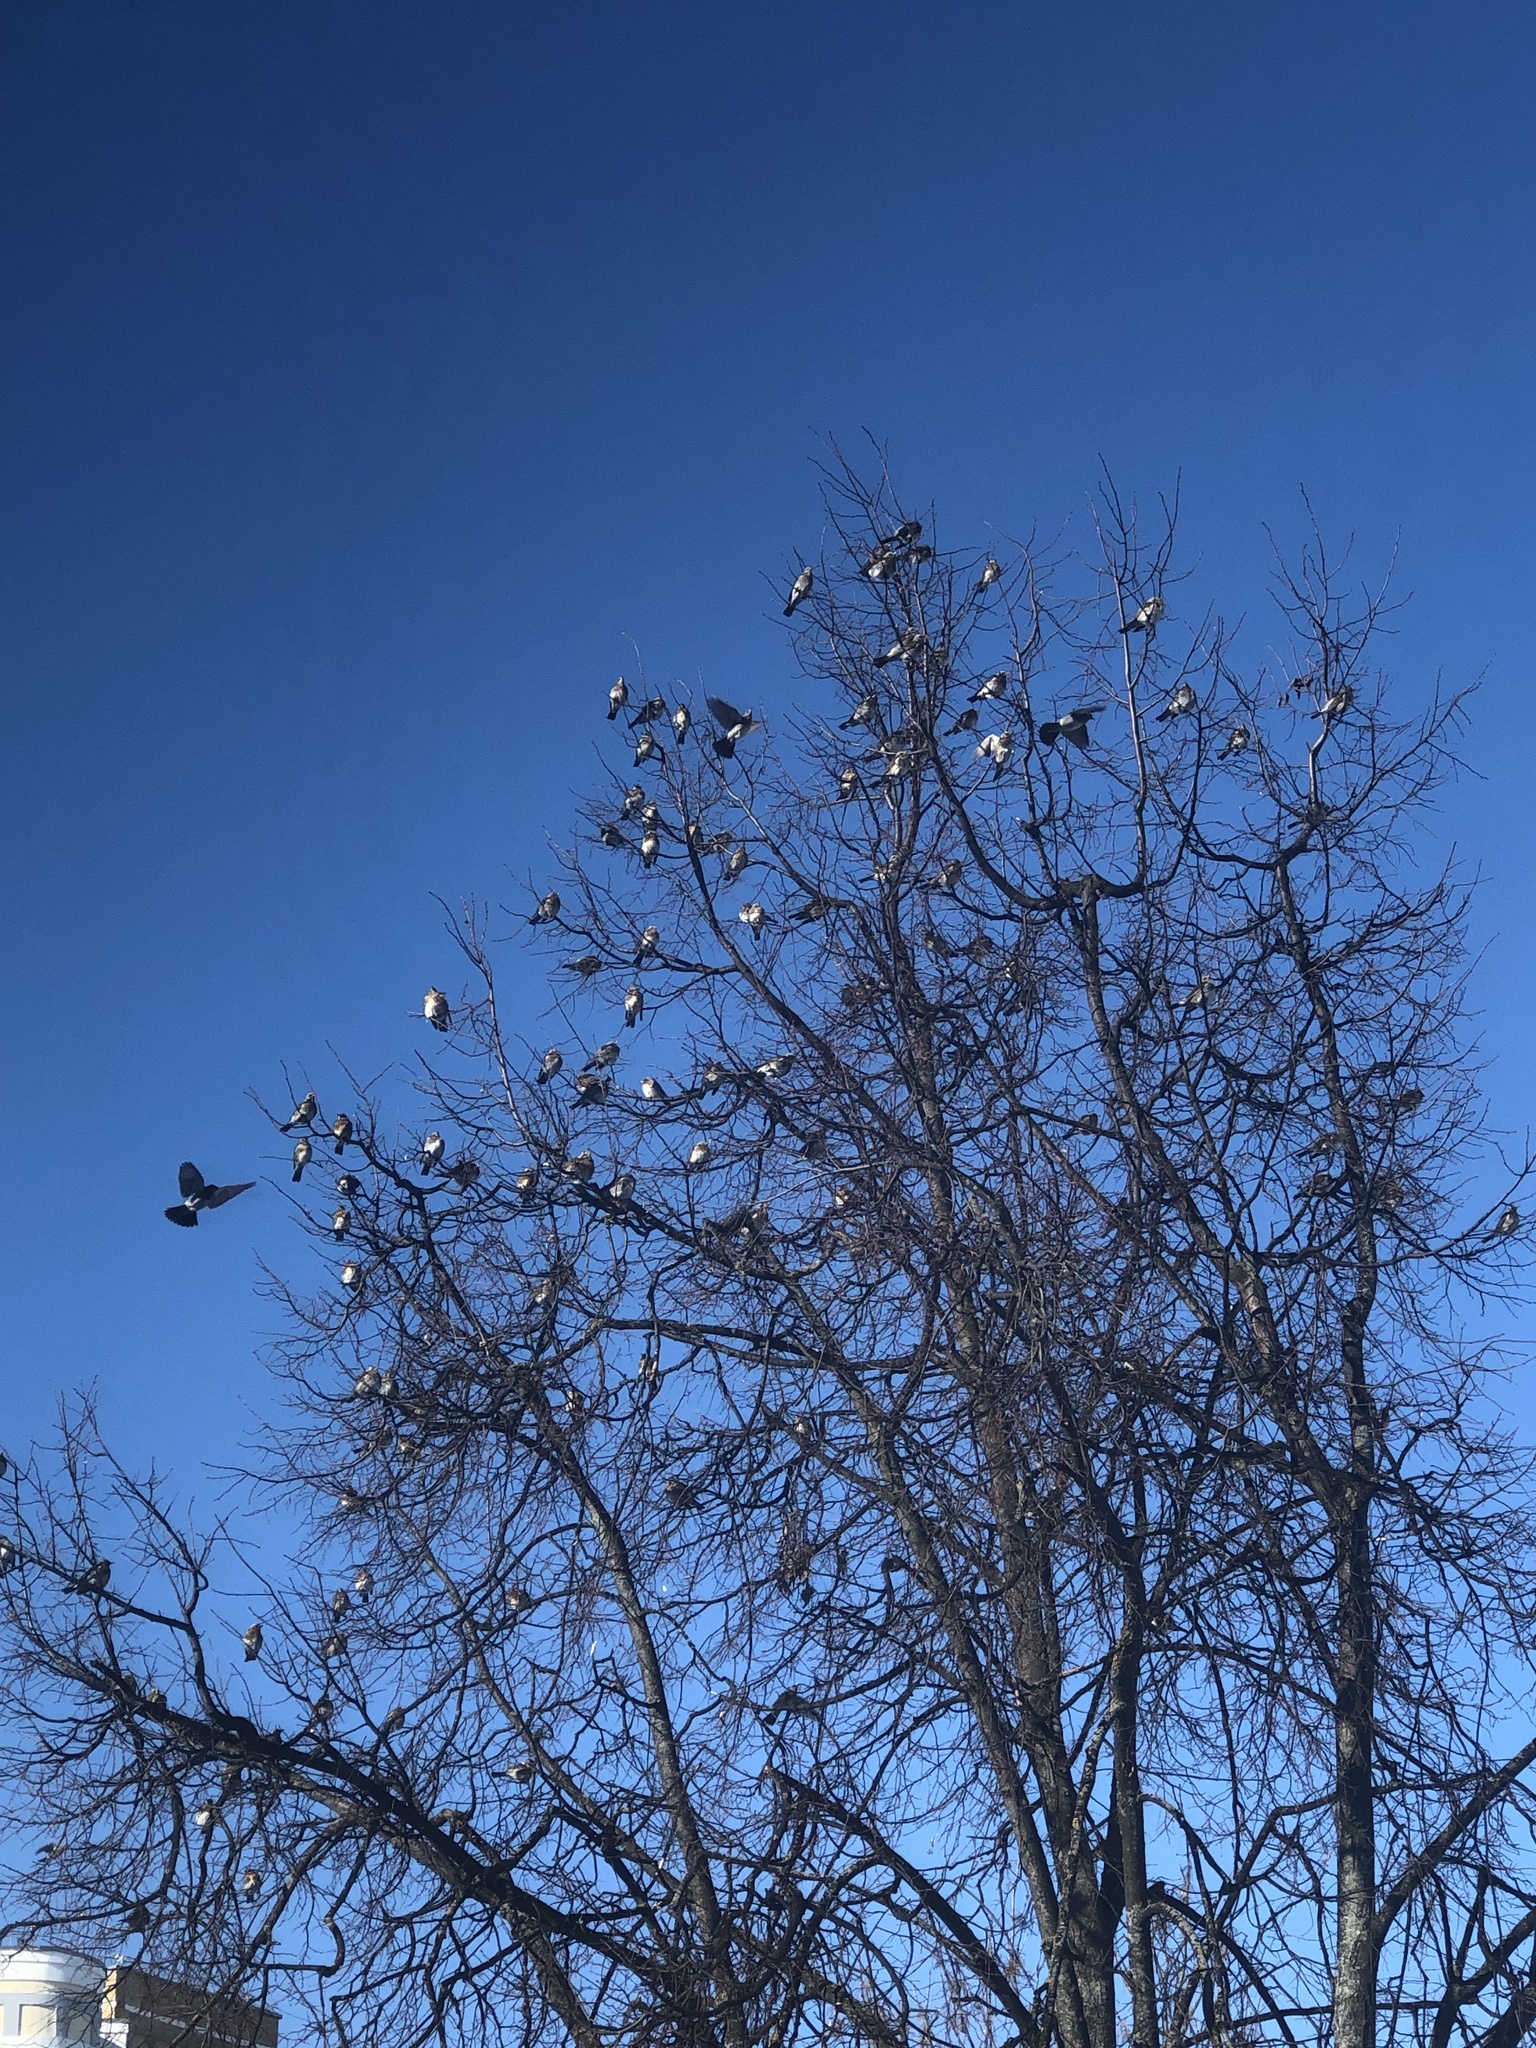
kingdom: Animalia
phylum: Chordata
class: Aves
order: Passeriformes
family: Turdidae
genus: Turdus
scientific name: Turdus pilaris
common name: Fieldfare
